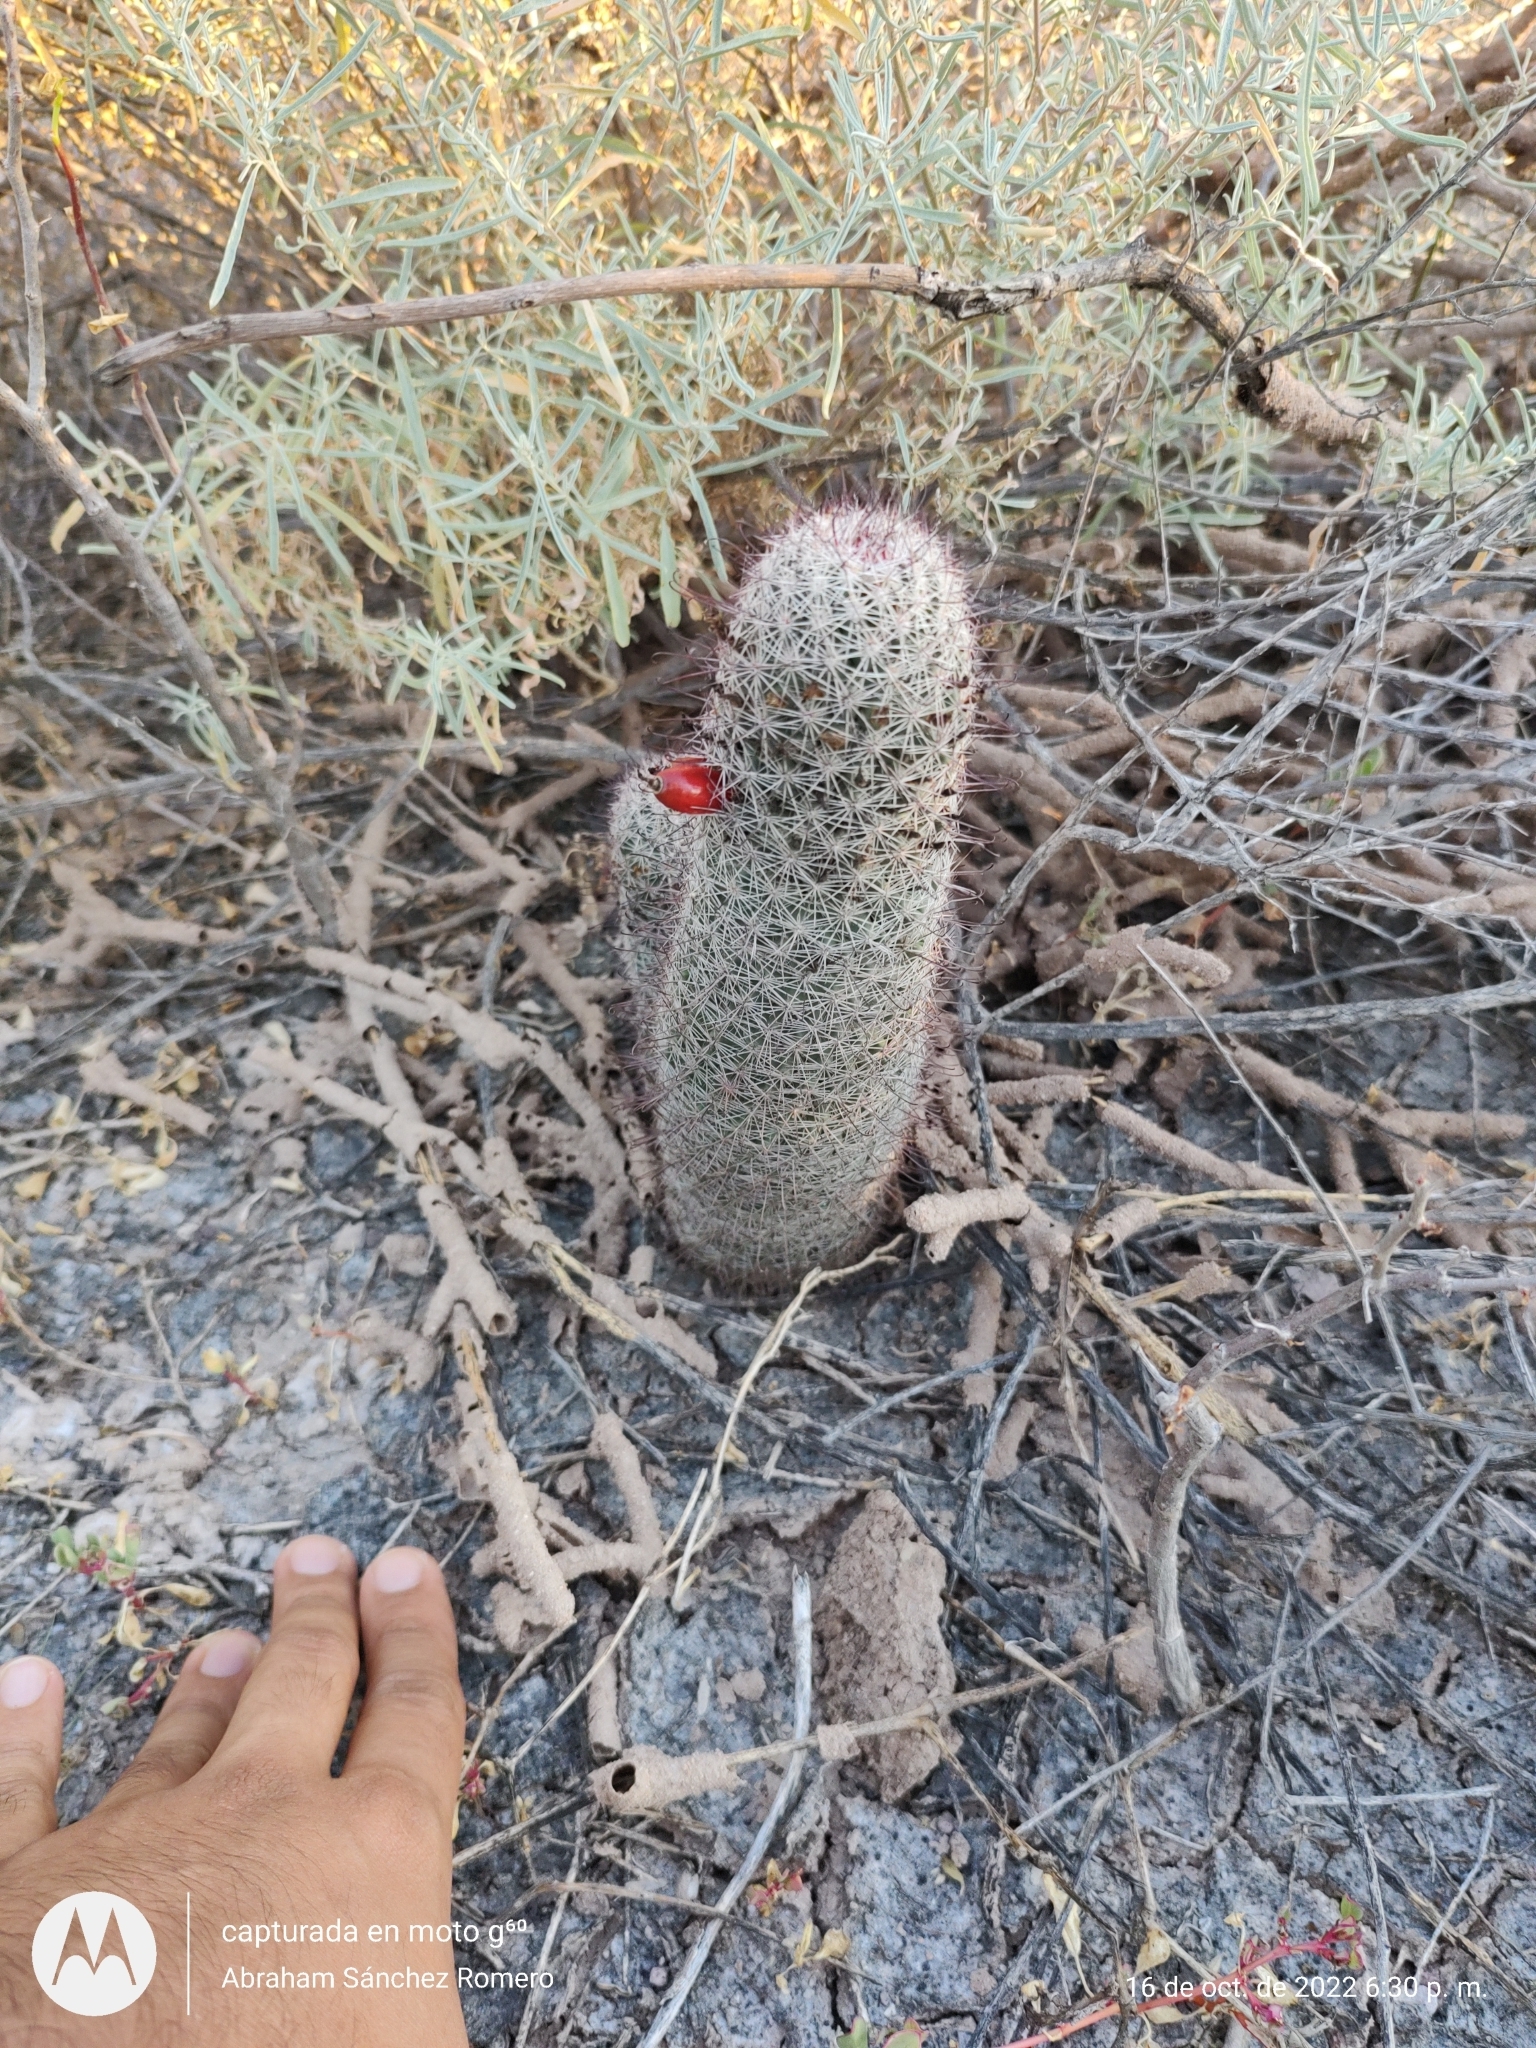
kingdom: Plantae
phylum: Tracheophyta
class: Magnoliopsida
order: Caryophyllales
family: Cactaceae
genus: Cochemiea
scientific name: Cochemiea dioica
